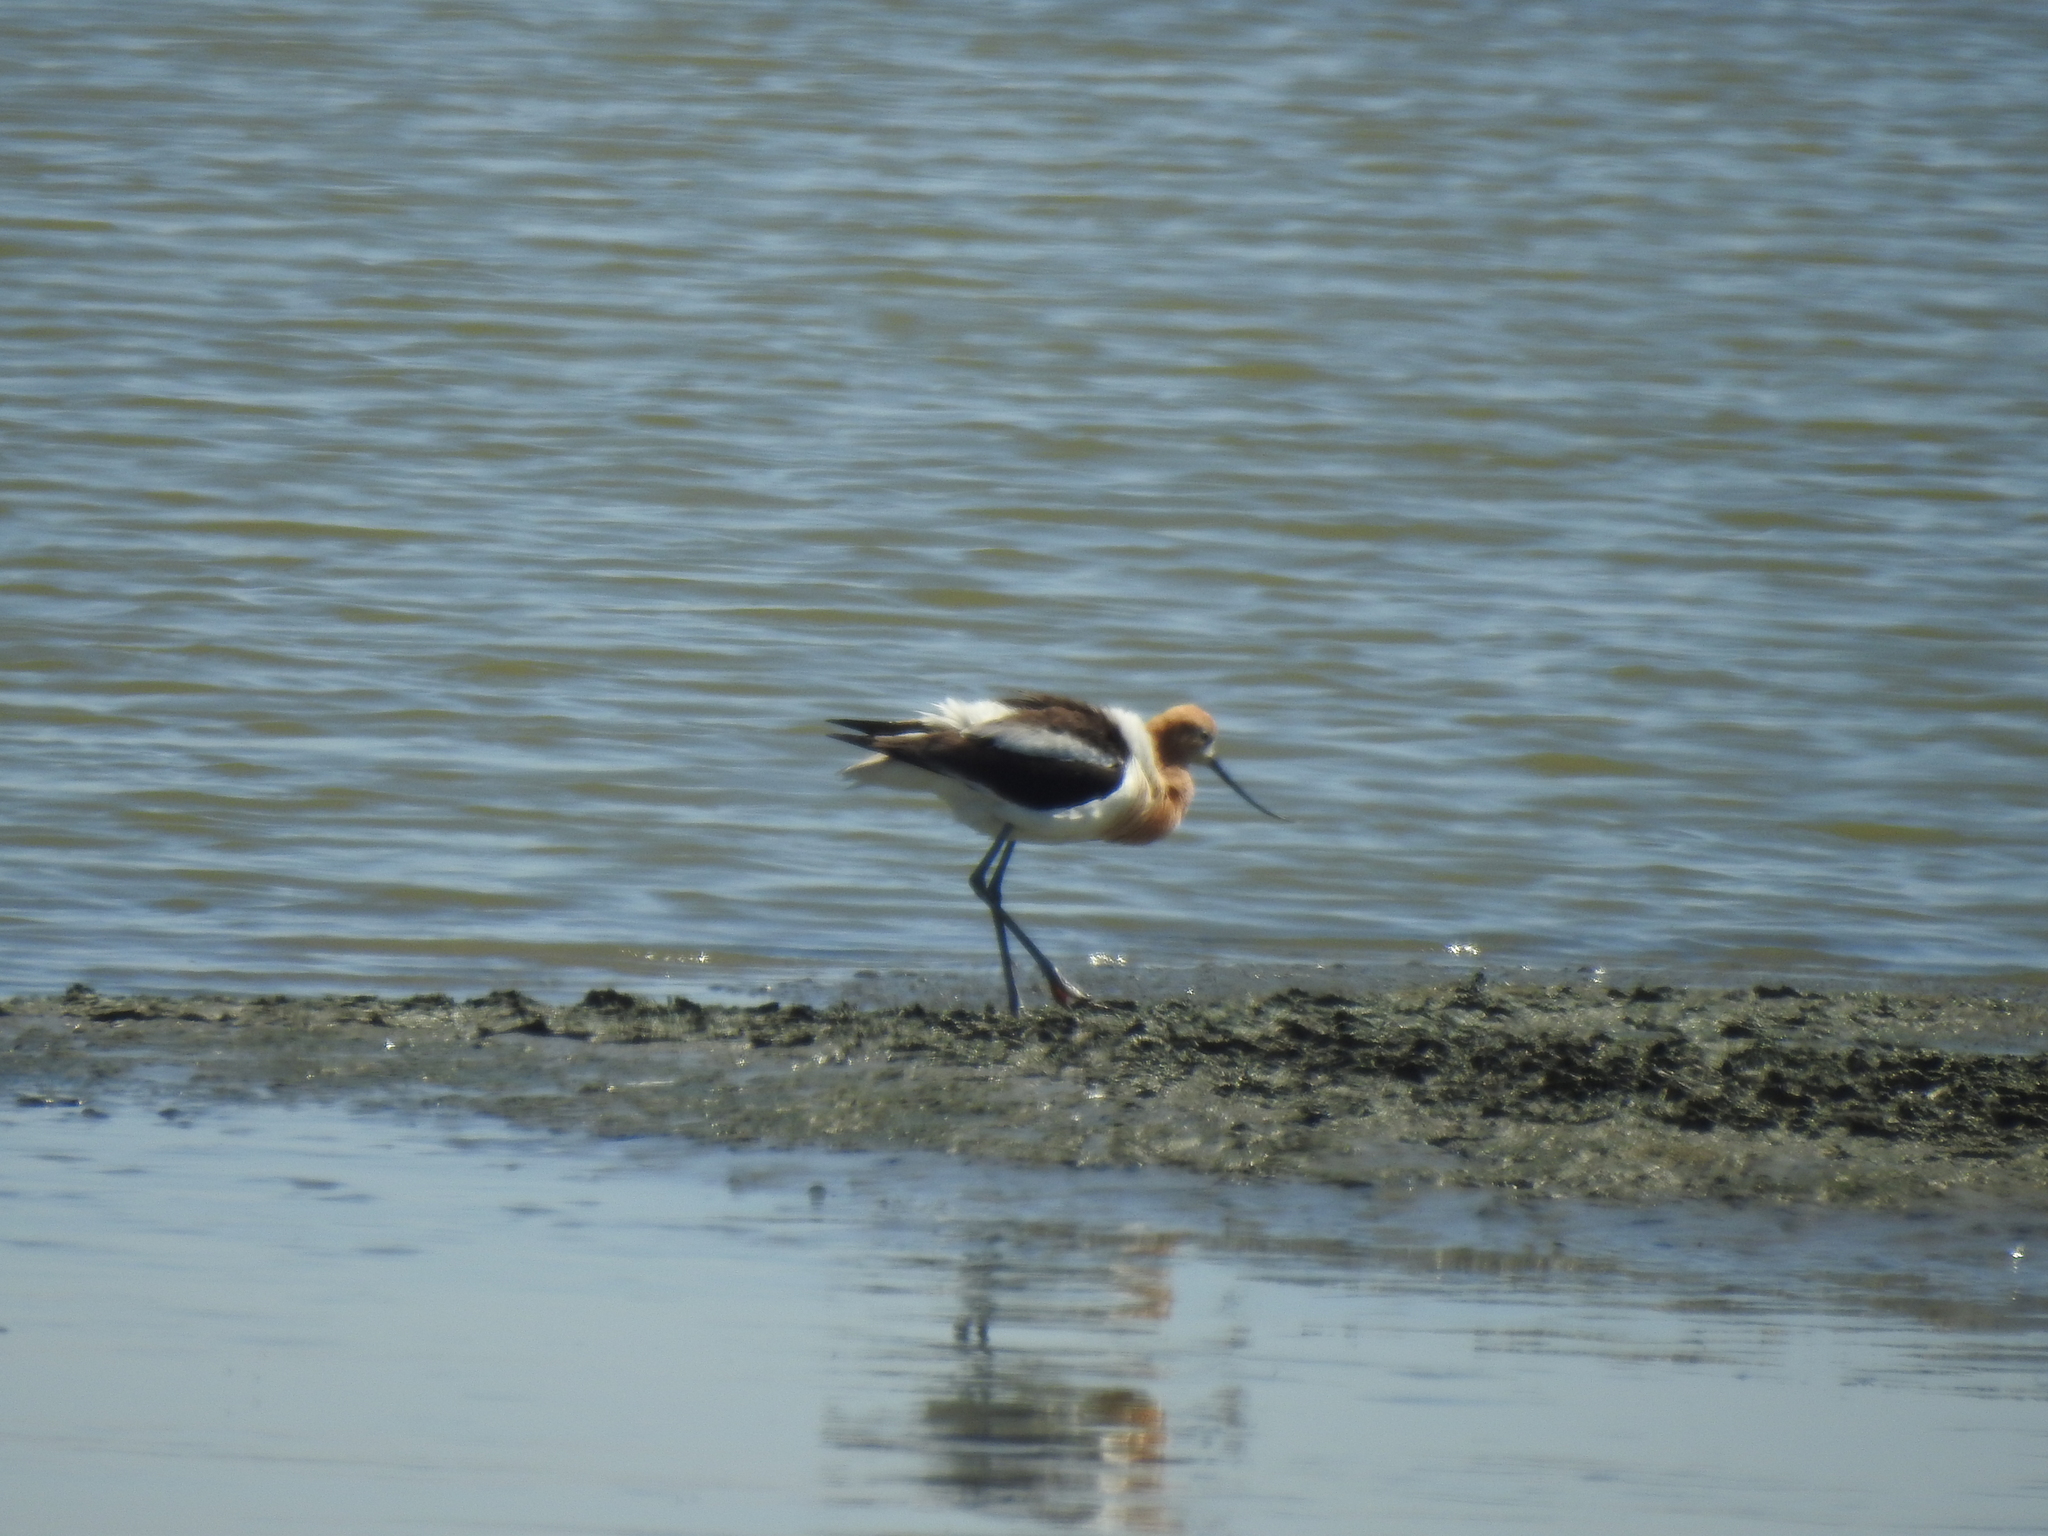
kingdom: Animalia
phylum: Chordata
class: Aves
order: Charadriiformes
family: Recurvirostridae
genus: Recurvirostra
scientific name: Recurvirostra americana
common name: American avocet
